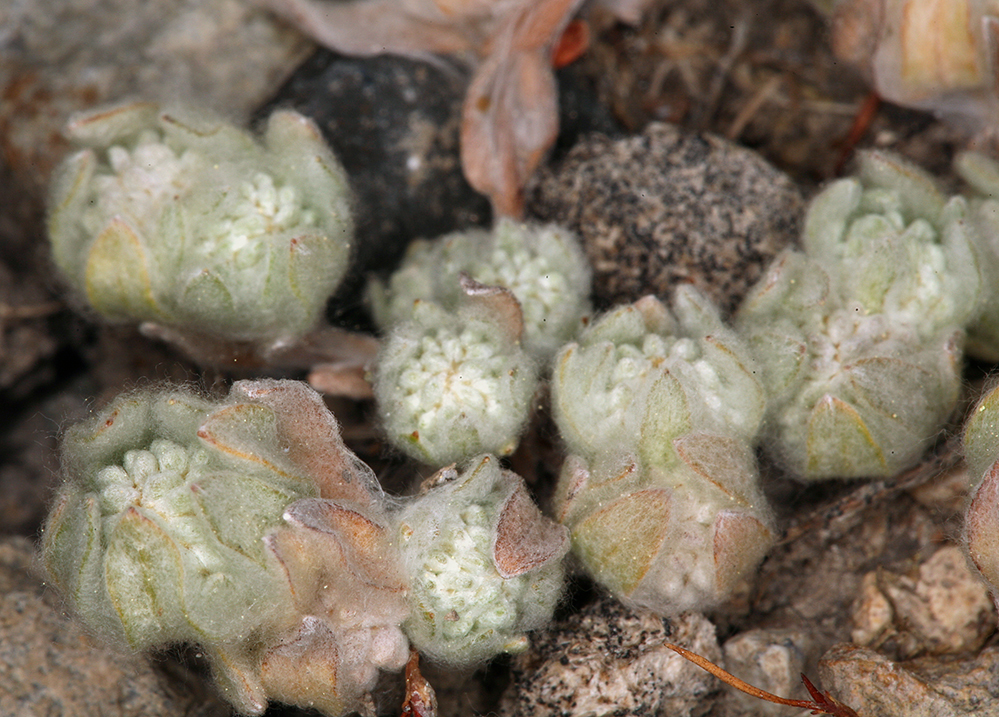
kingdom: Plantae
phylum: Tracheophyta
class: Magnoliopsida
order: Asterales
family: Asteraceae
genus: Psilocarphus
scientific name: Psilocarphus brevissimus
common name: Dwarf woollyheads
